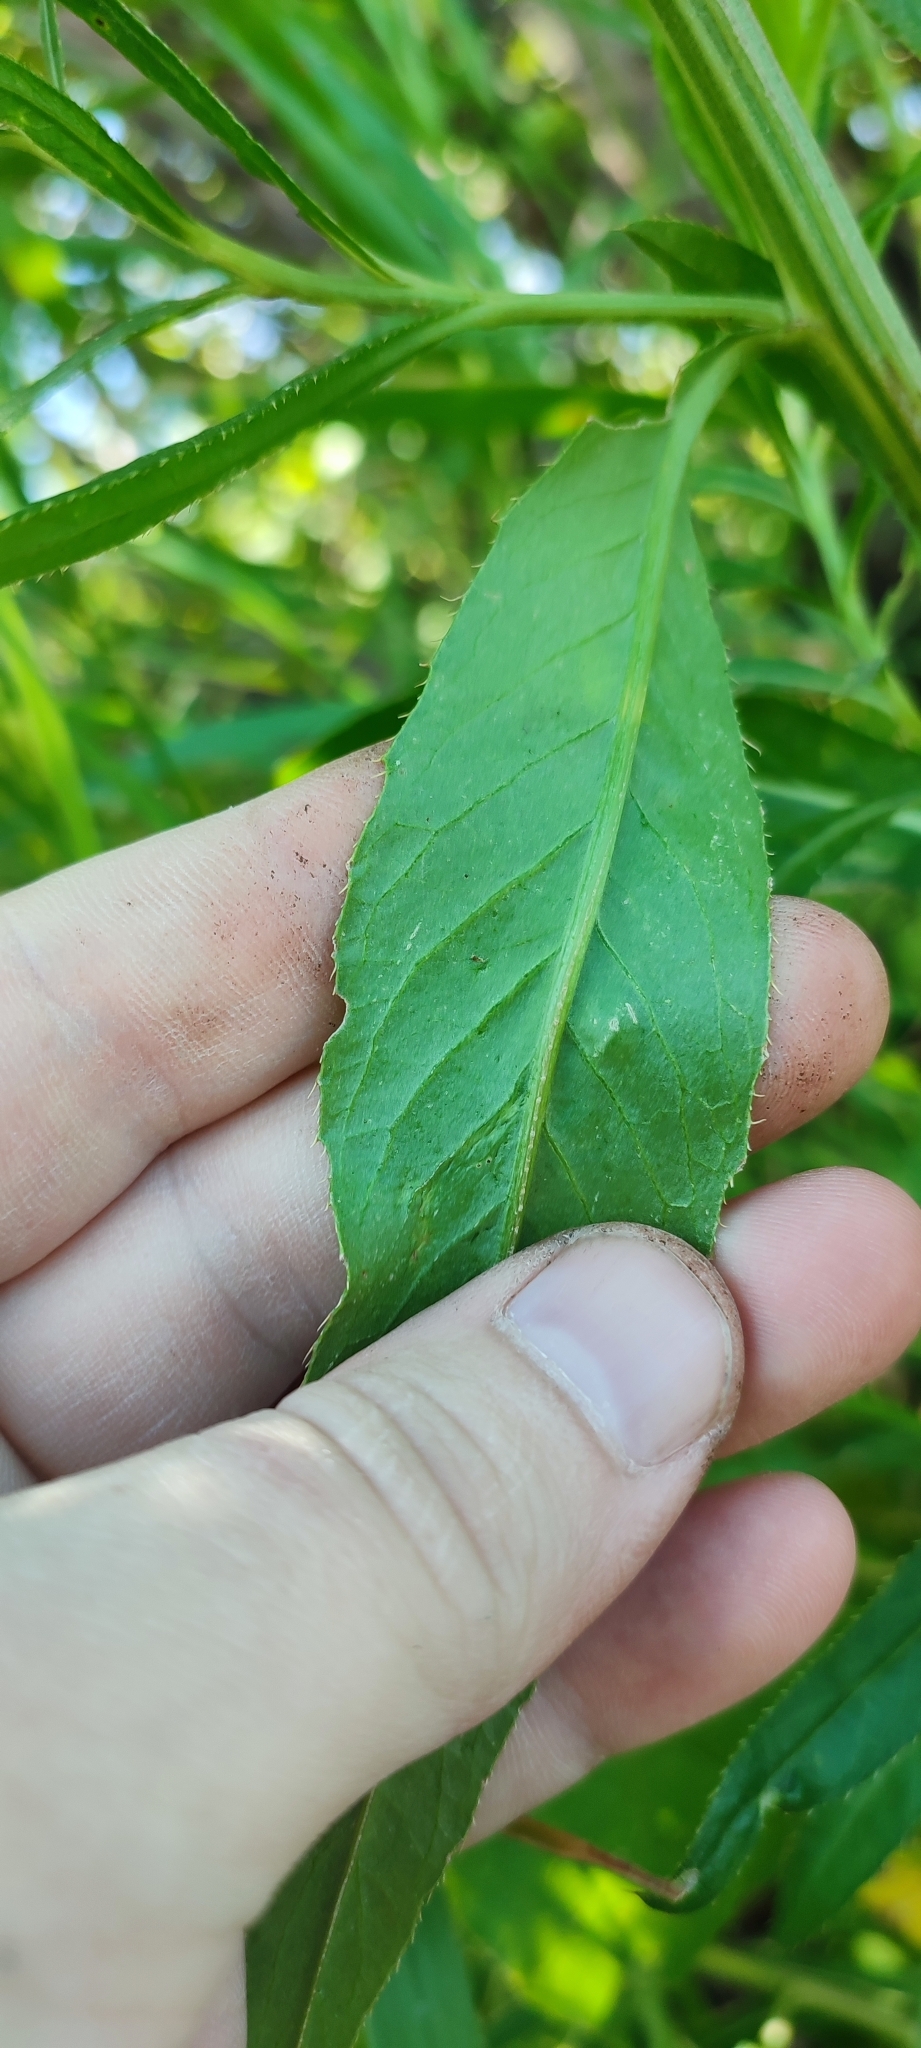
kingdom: Plantae
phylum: Tracheophyta
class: Magnoliopsida
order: Asterales
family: Asteraceae
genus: Cirsium
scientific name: Cirsium arvense
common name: Creeping thistle
